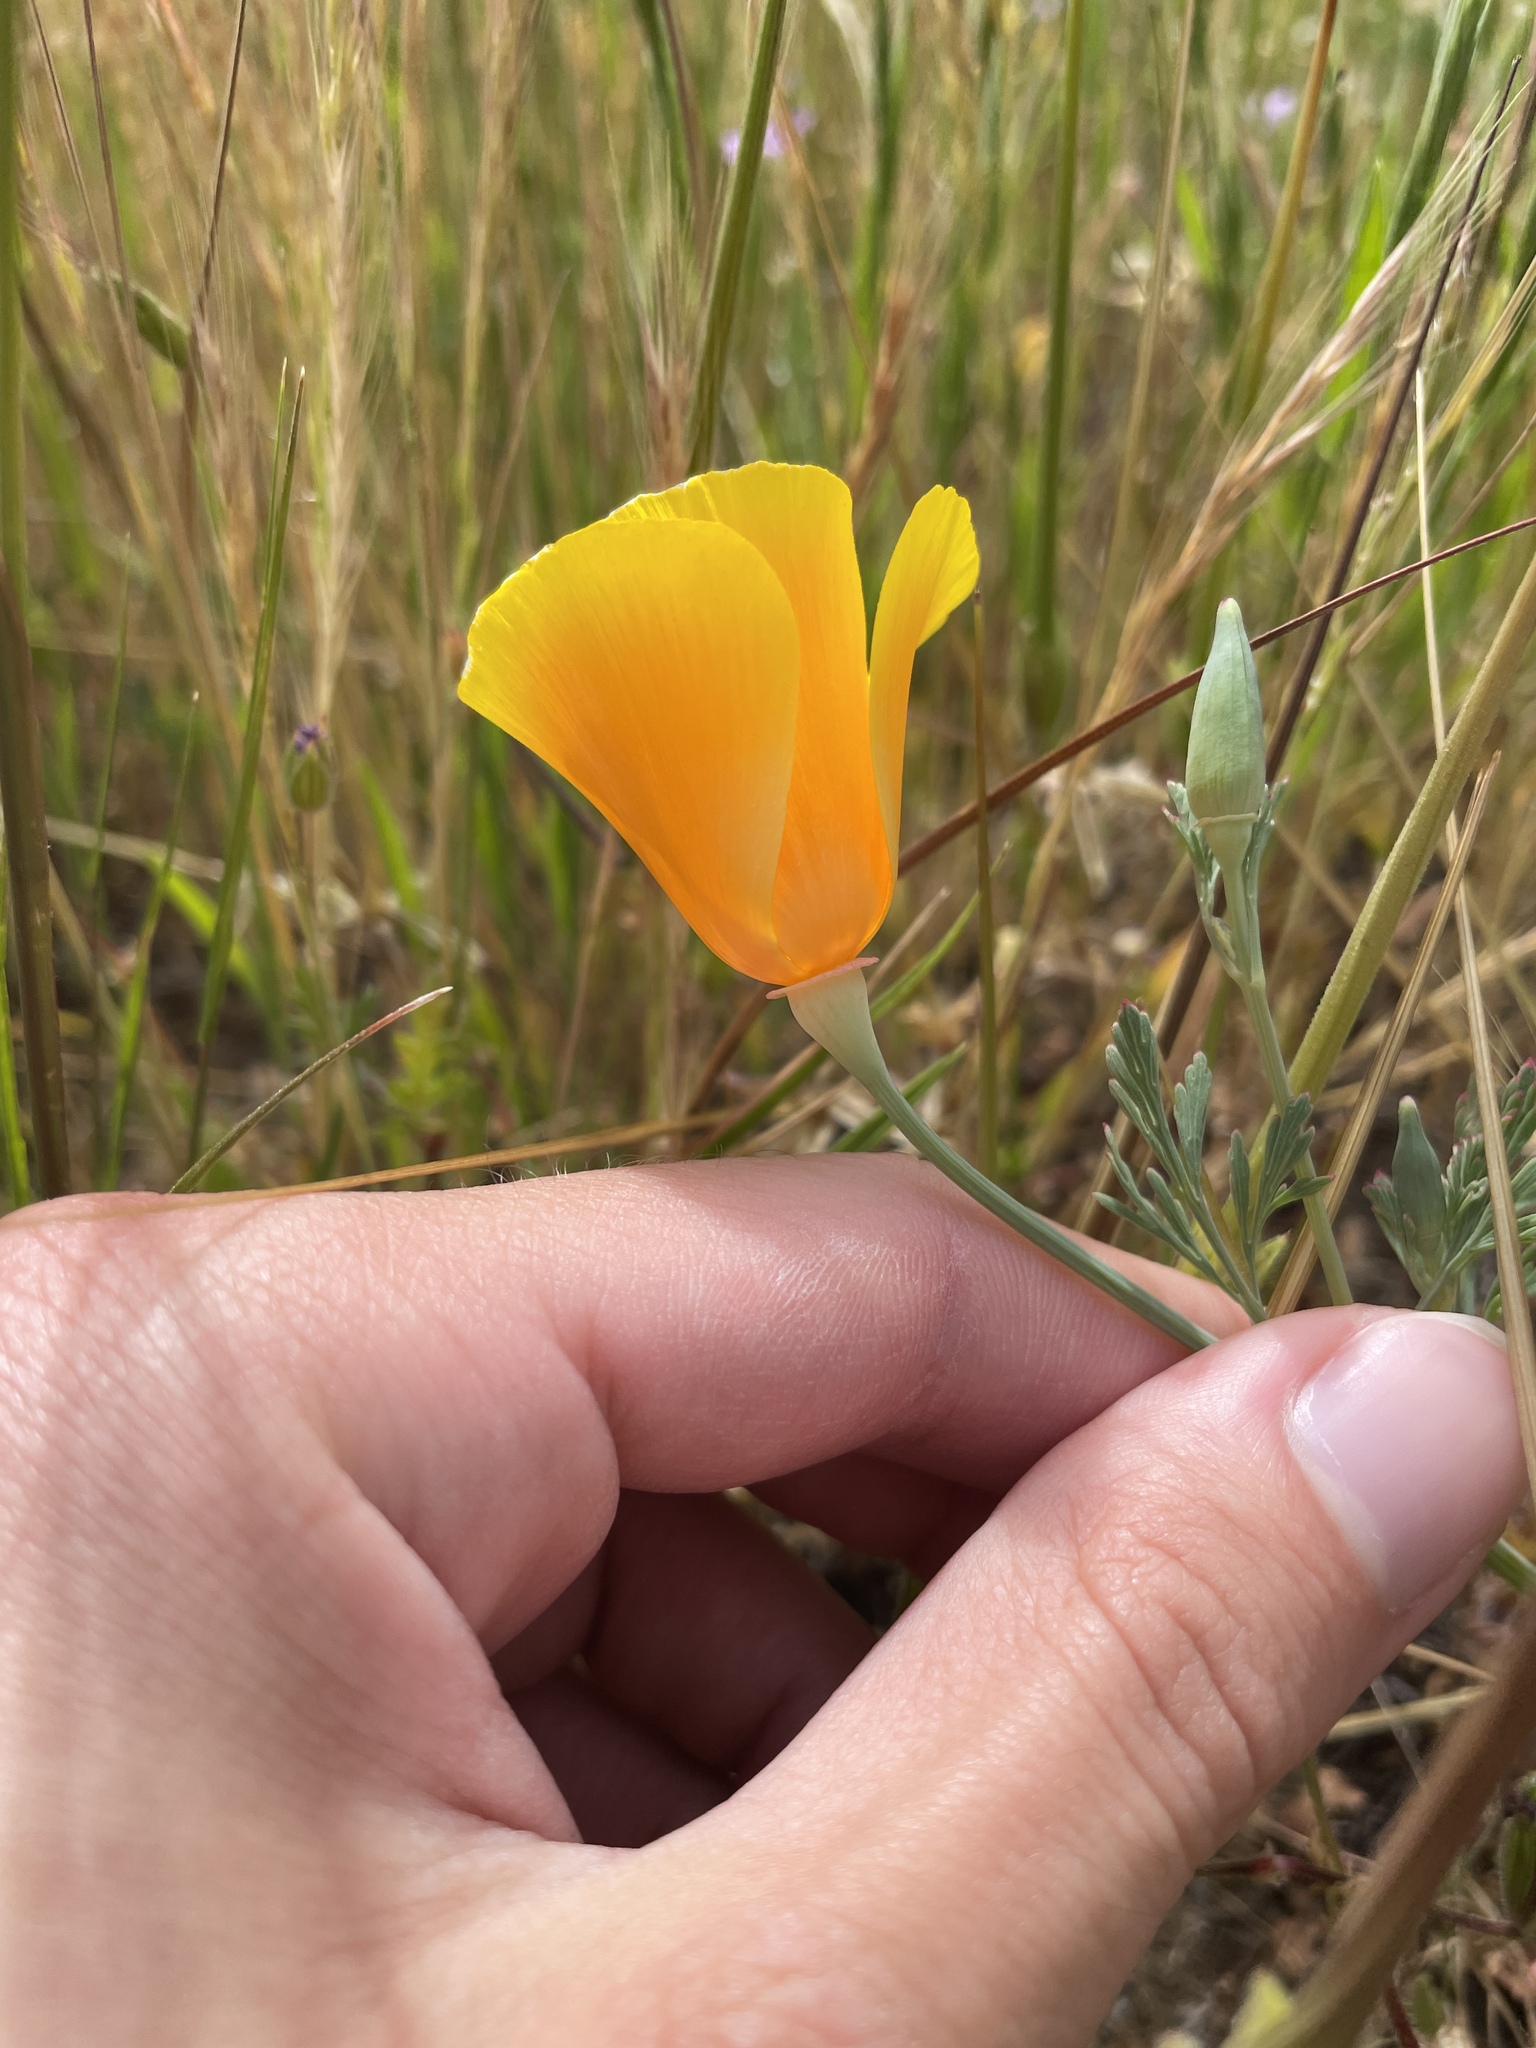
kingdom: Plantae
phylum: Tracheophyta
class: Magnoliopsida
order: Ranunculales
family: Papaveraceae
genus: Eschscholzia
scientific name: Eschscholzia californica
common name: California poppy
